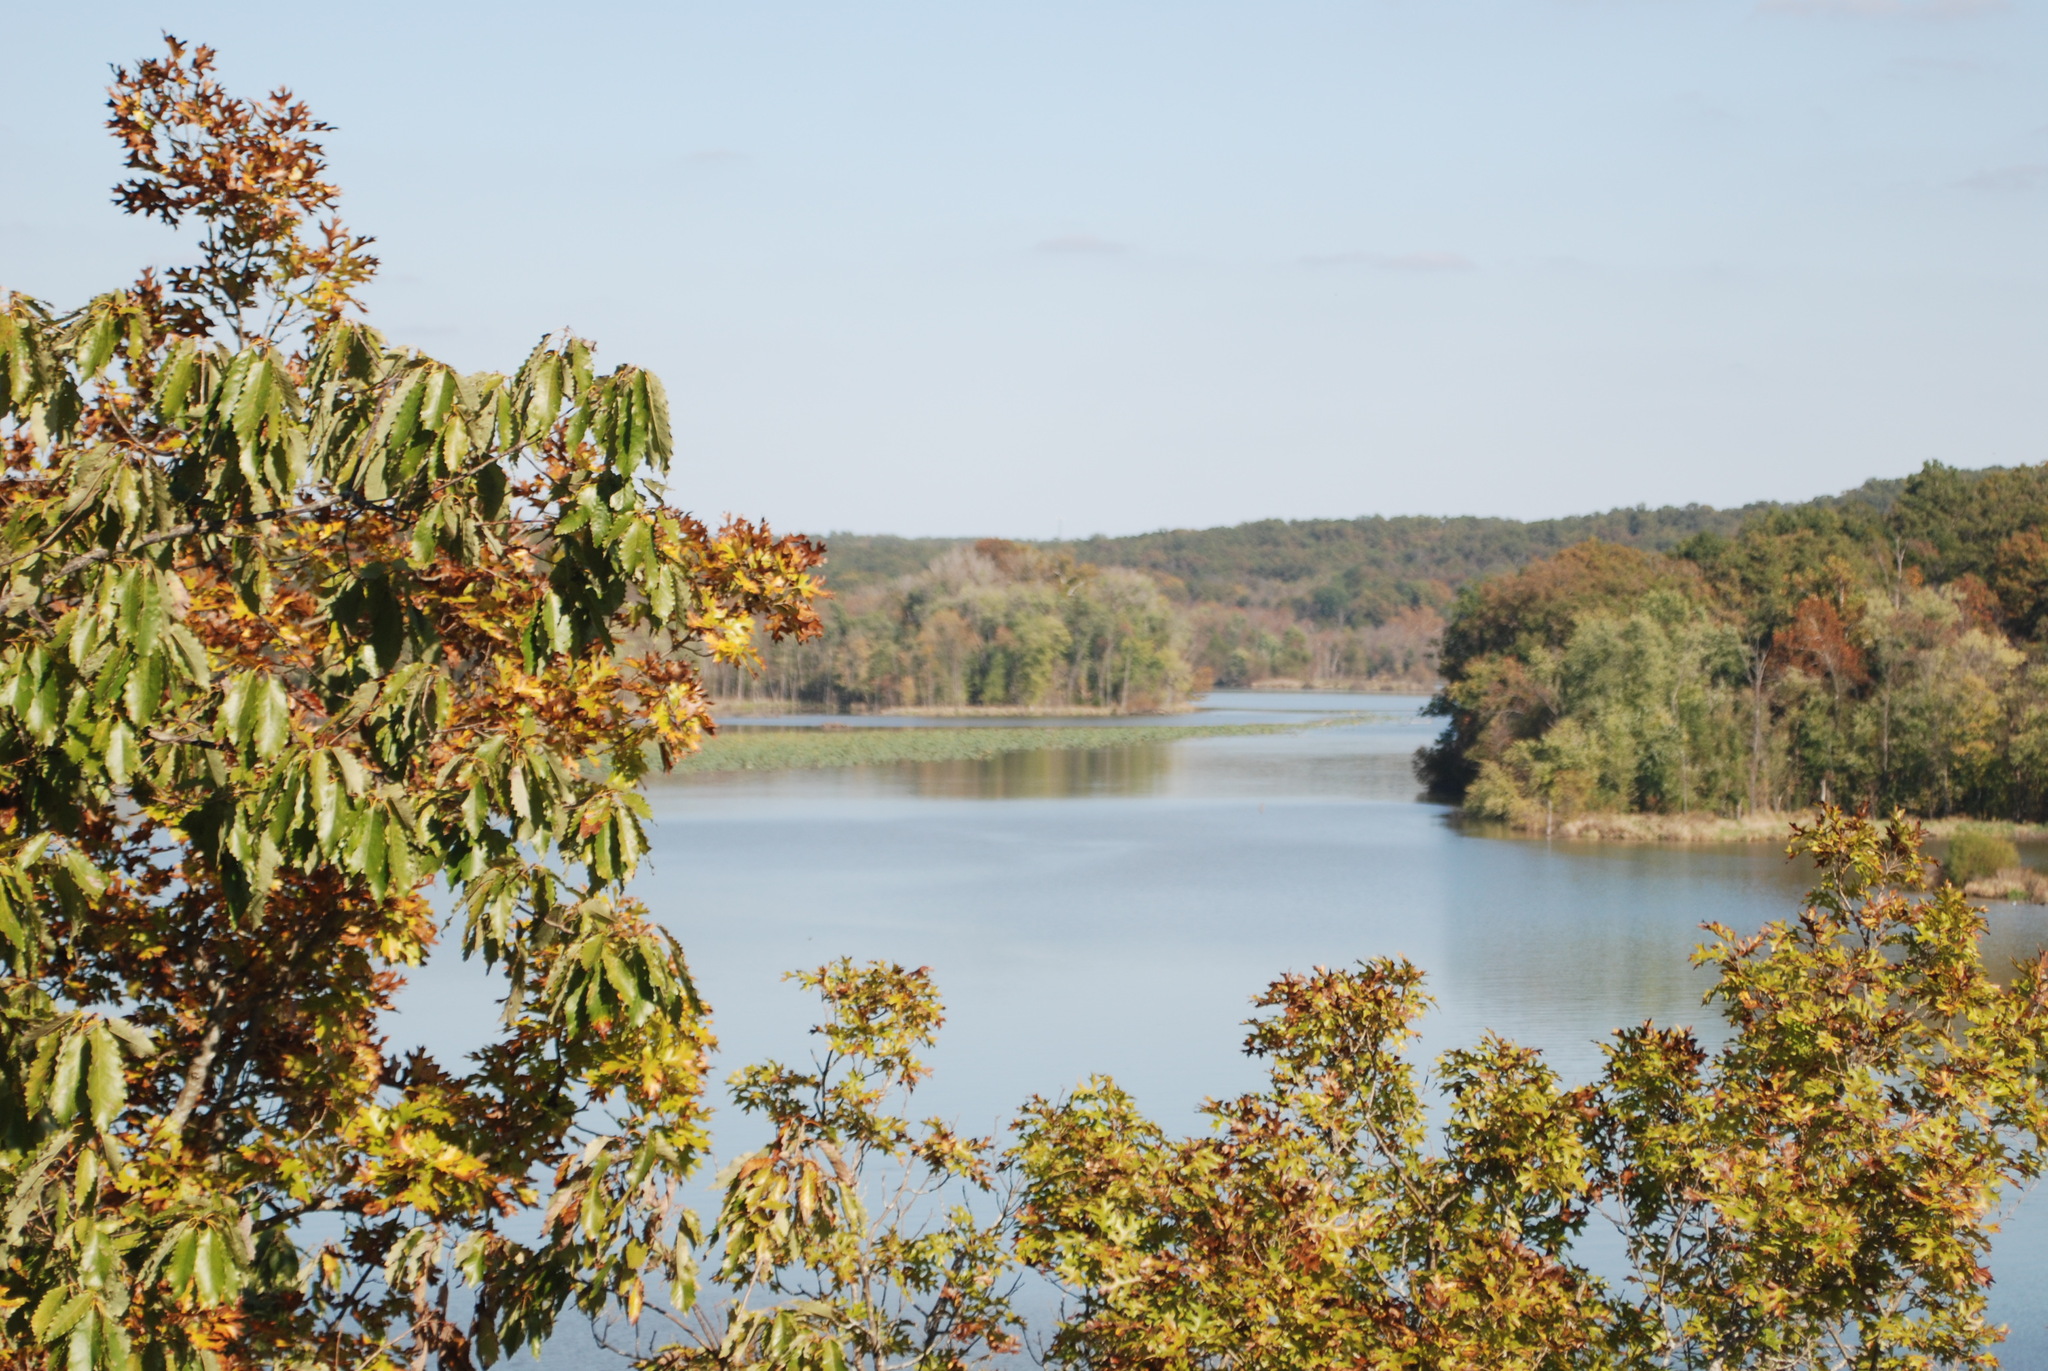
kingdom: Plantae
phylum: Tracheophyta
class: Magnoliopsida
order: Fagales
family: Fagaceae
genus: Quercus
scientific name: Quercus muehlenbergii
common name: Chinkapin oak
